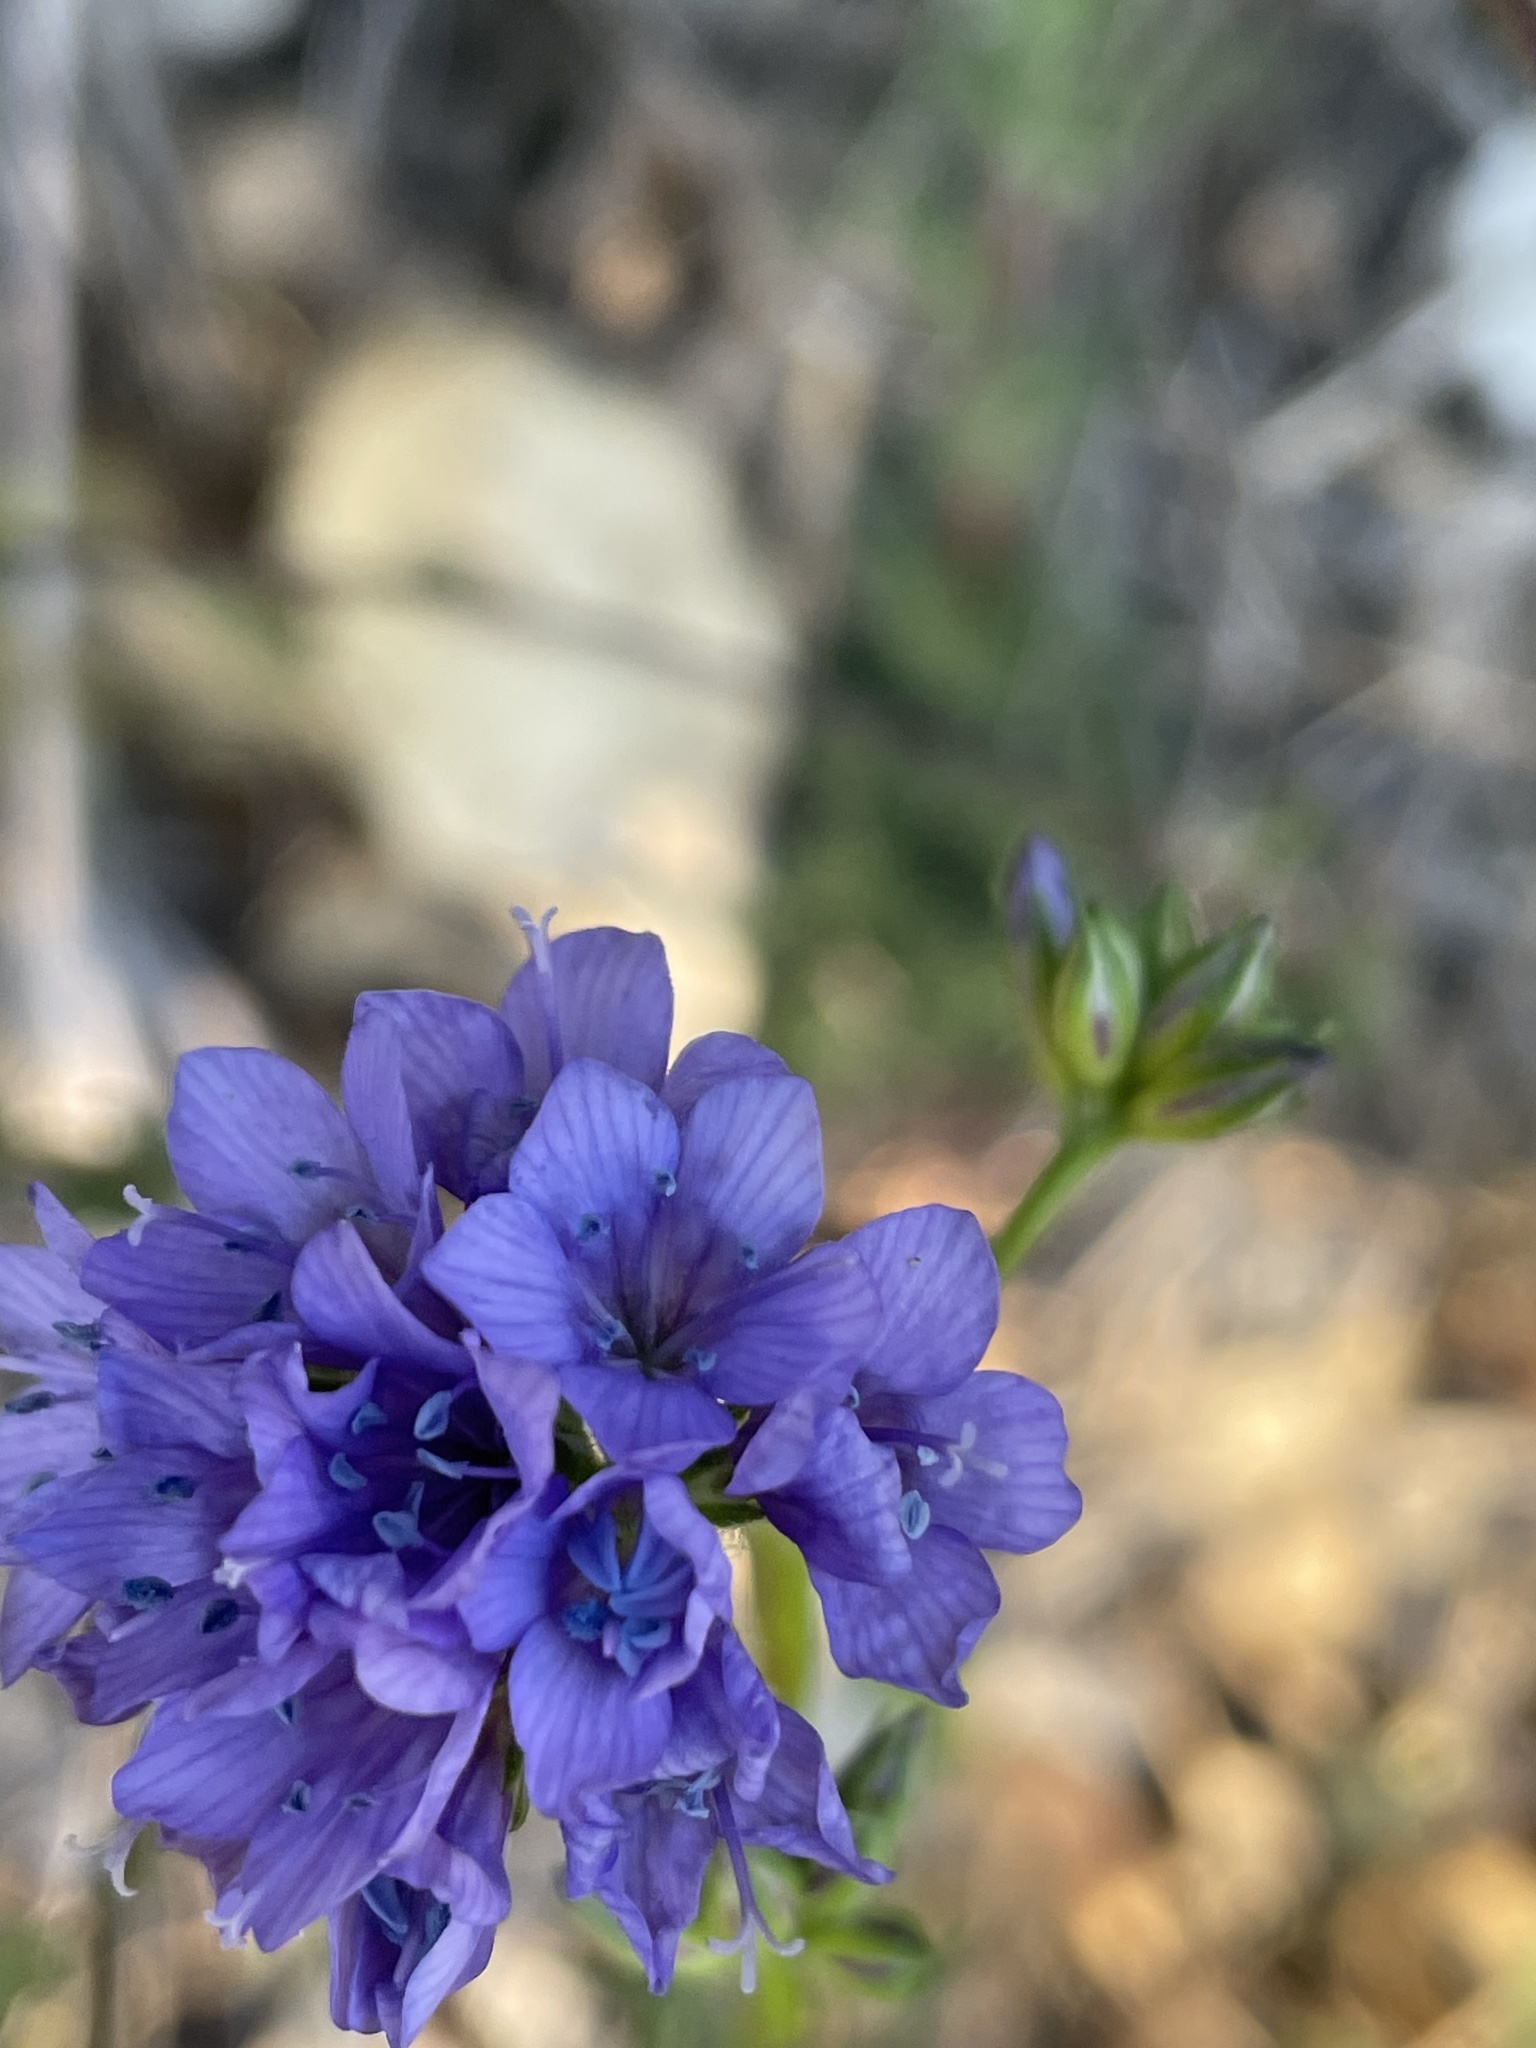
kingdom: Plantae
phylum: Tracheophyta
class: Magnoliopsida
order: Ericales
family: Polemoniaceae
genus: Gilia
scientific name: Gilia achilleifolia
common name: California gily-flower
